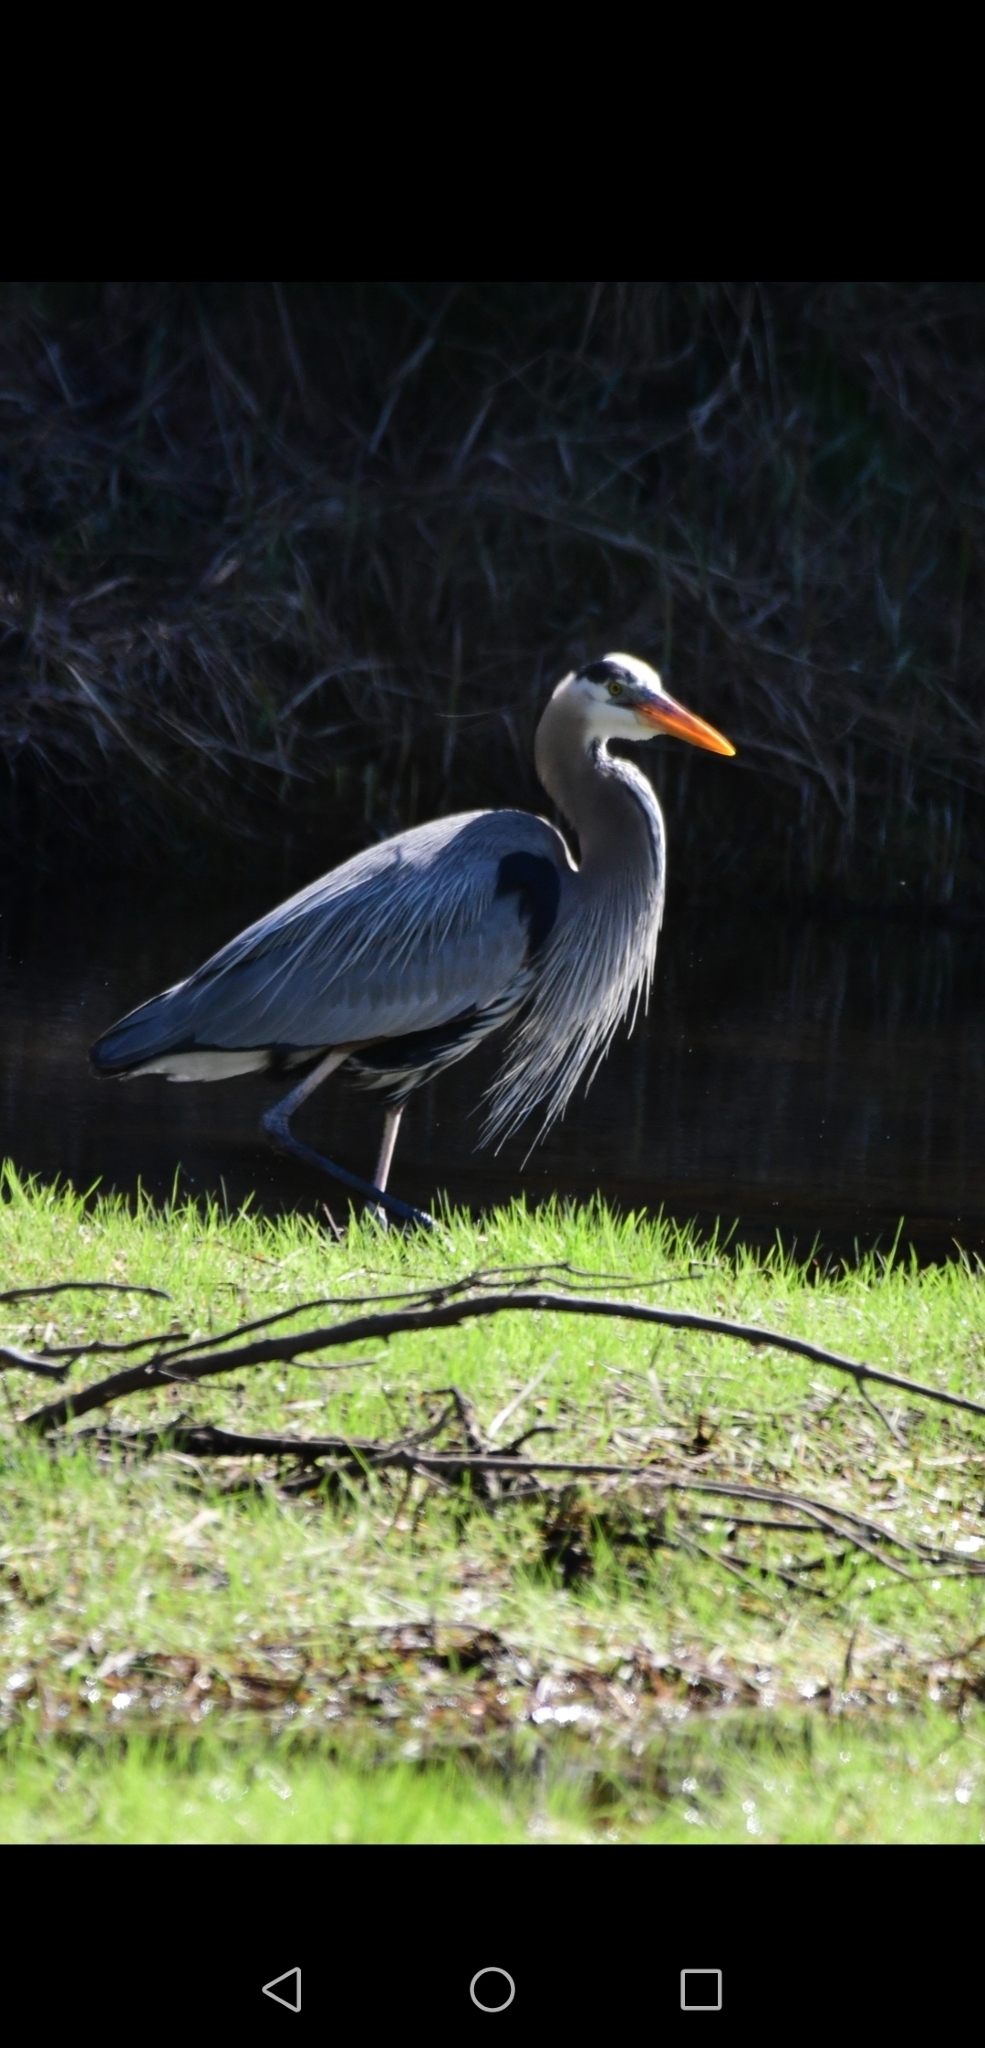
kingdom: Animalia
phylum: Chordata
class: Aves
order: Pelecaniformes
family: Ardeidae
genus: Ardea
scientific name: Ardea herodias
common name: Great blue heron
